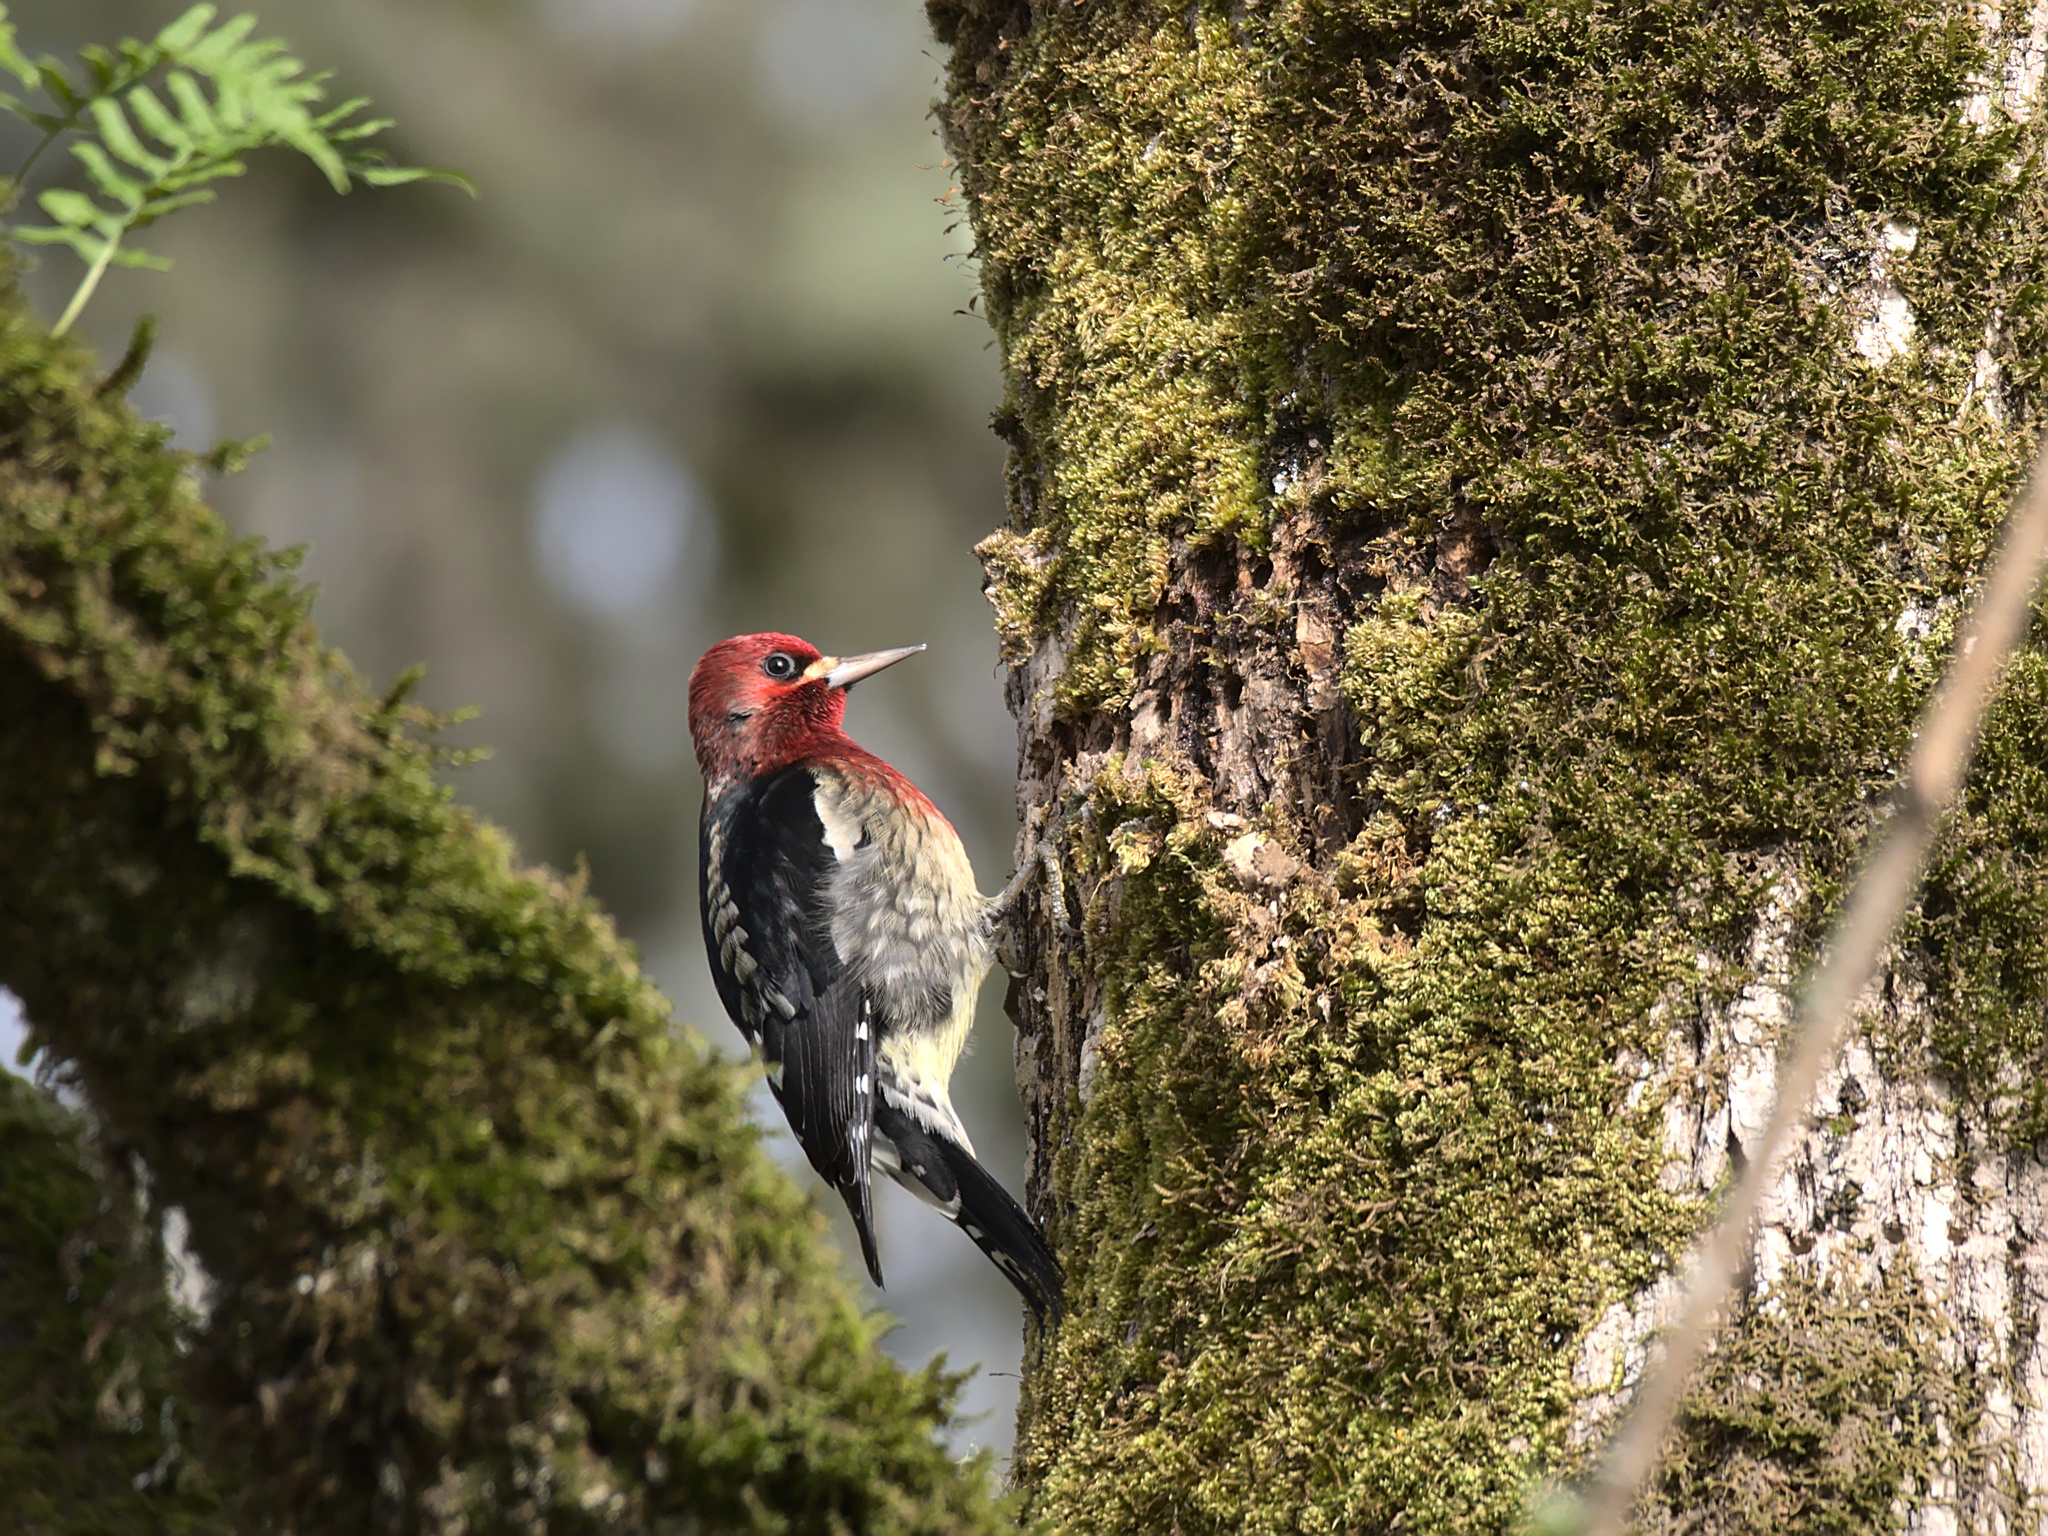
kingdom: Animalia
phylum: Chordata
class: Aves
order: Piciformes
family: Picidae
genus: Sphyrapicus
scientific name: Sphyrapicus ruber
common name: Red-breasted sapsucker
